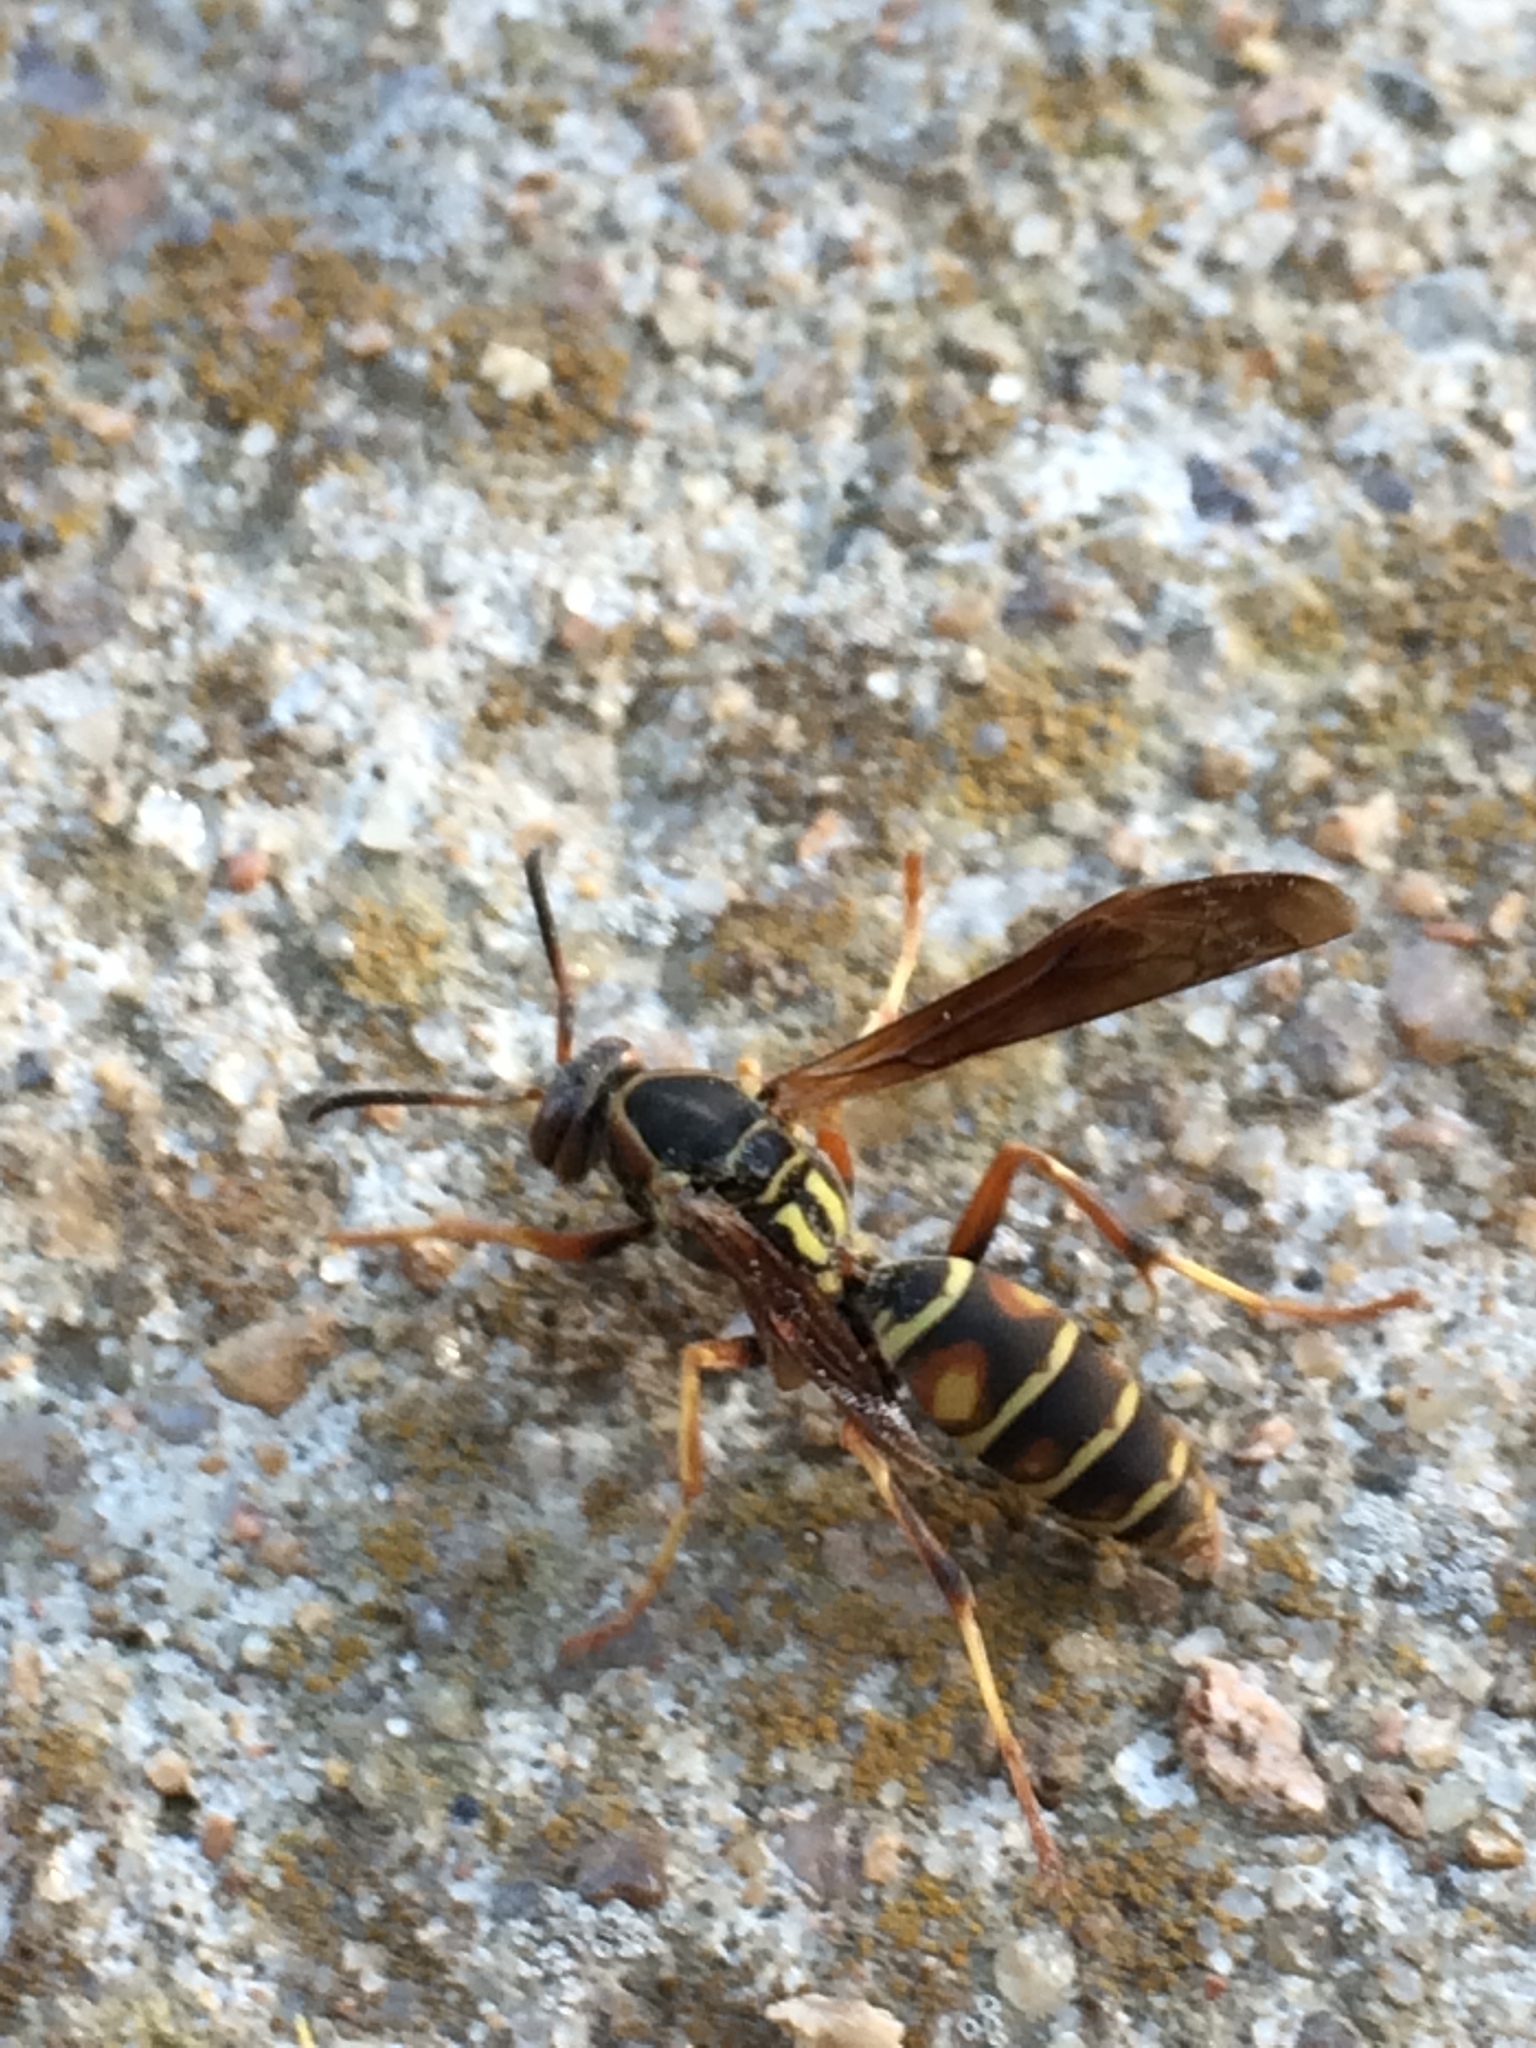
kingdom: Animalia
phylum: Arthropoda
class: Insecta
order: Hymenoptera
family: Eumenidae
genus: Polistes
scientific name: Polistes fuscatus
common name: Dark paper wasp
